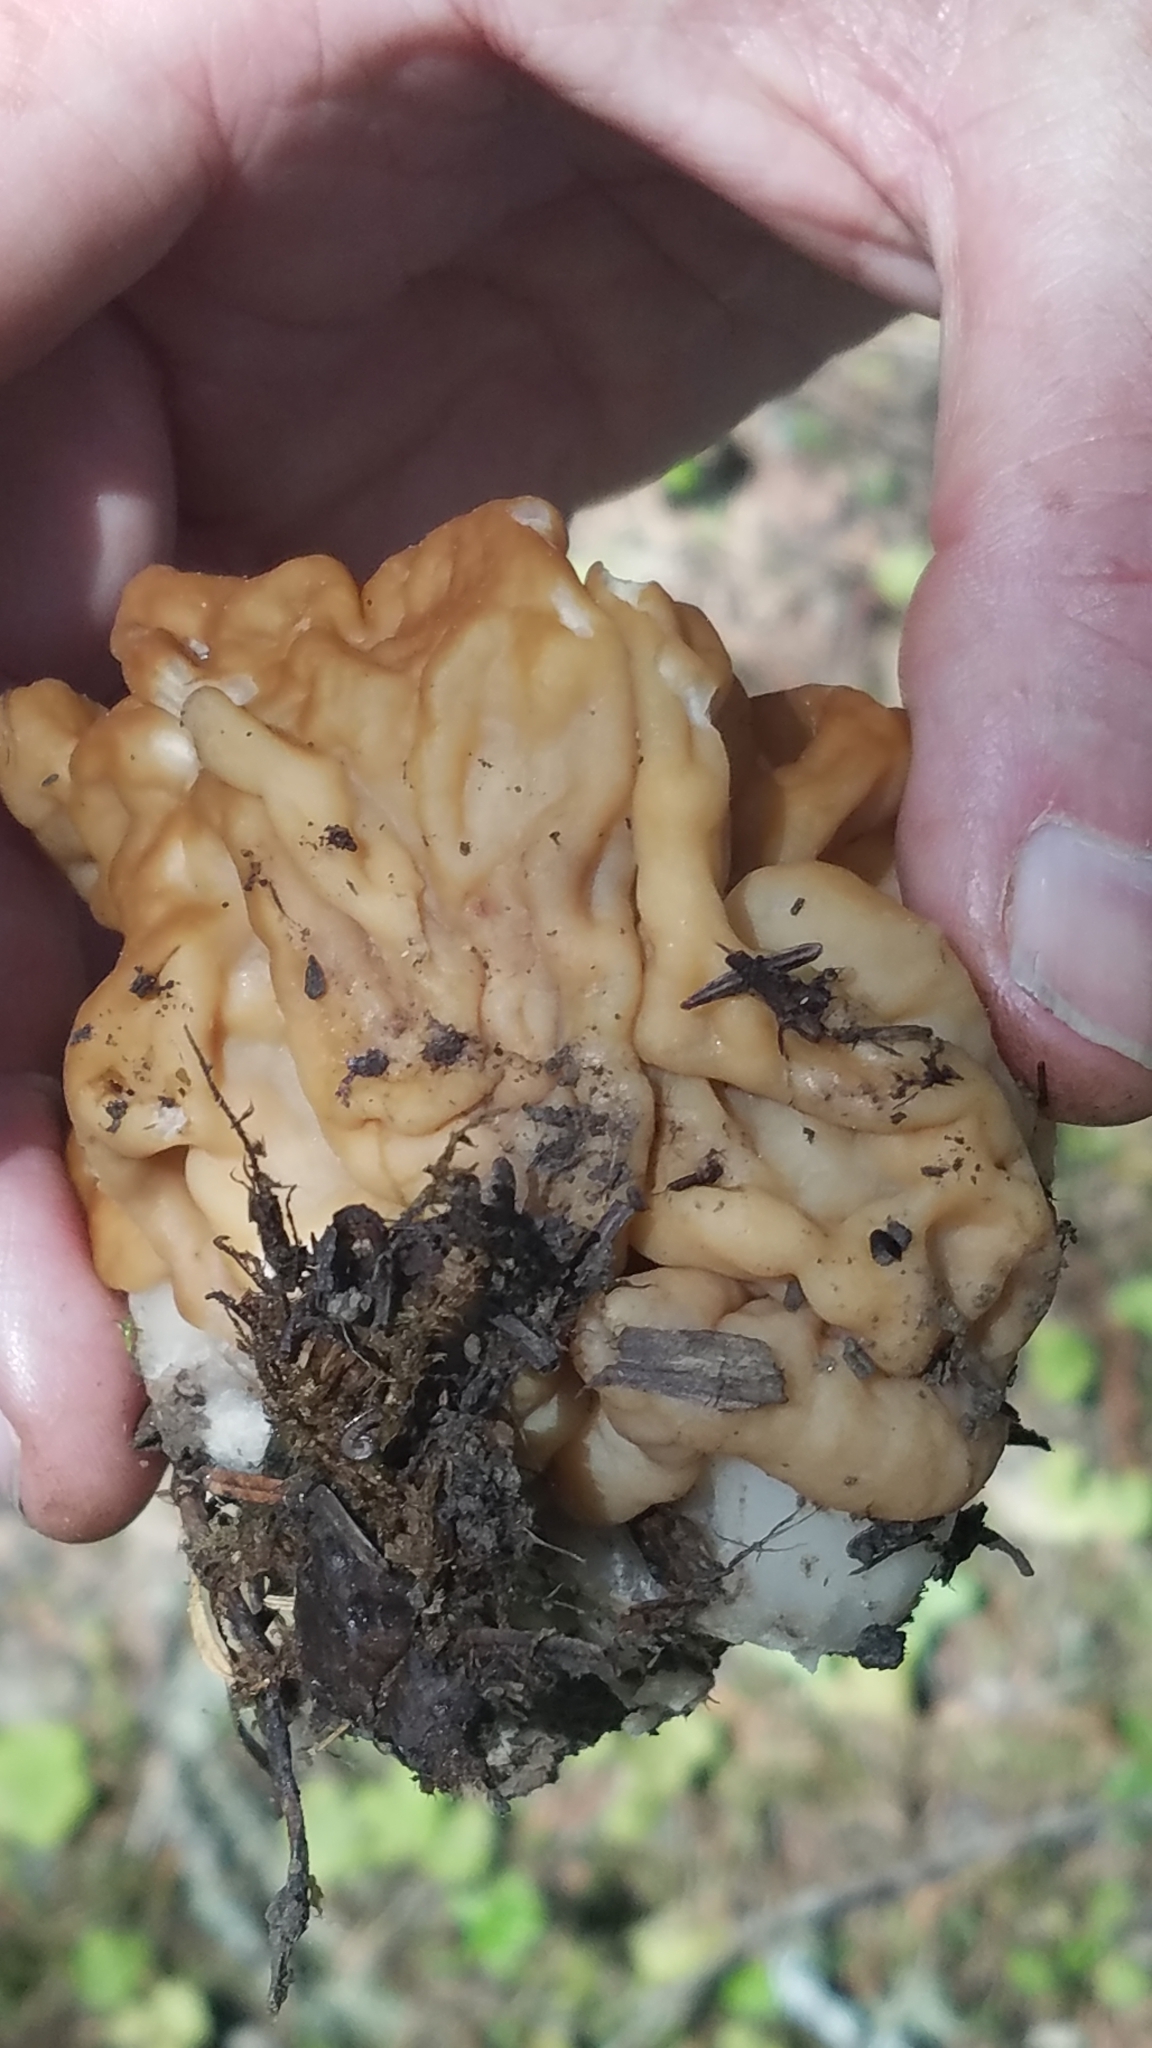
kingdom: Fungi
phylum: Ascomycota
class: Pezizomycetes
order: Pezizales
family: Discinaceae
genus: Discina
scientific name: Discina montana
